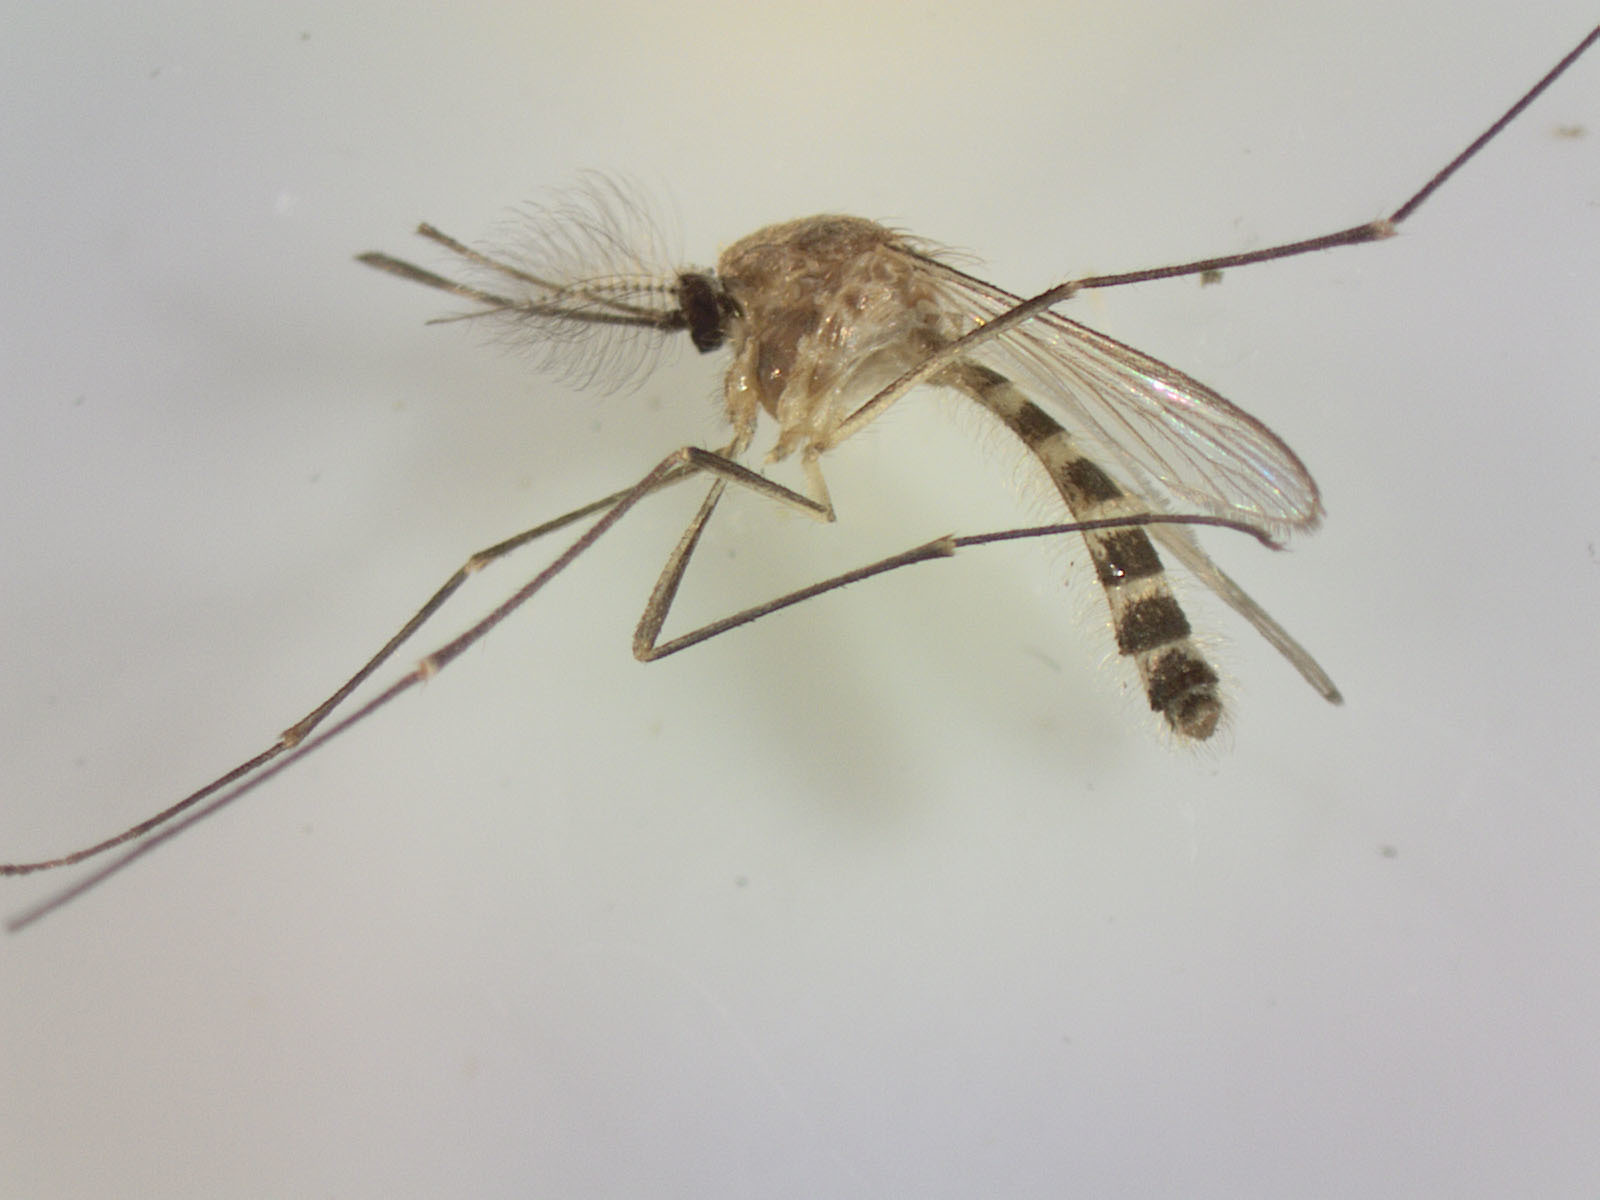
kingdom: Animalia
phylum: Arthropoda
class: Insecta
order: Diptera
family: Culicidae
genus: Culex
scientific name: Culex pervigilans
